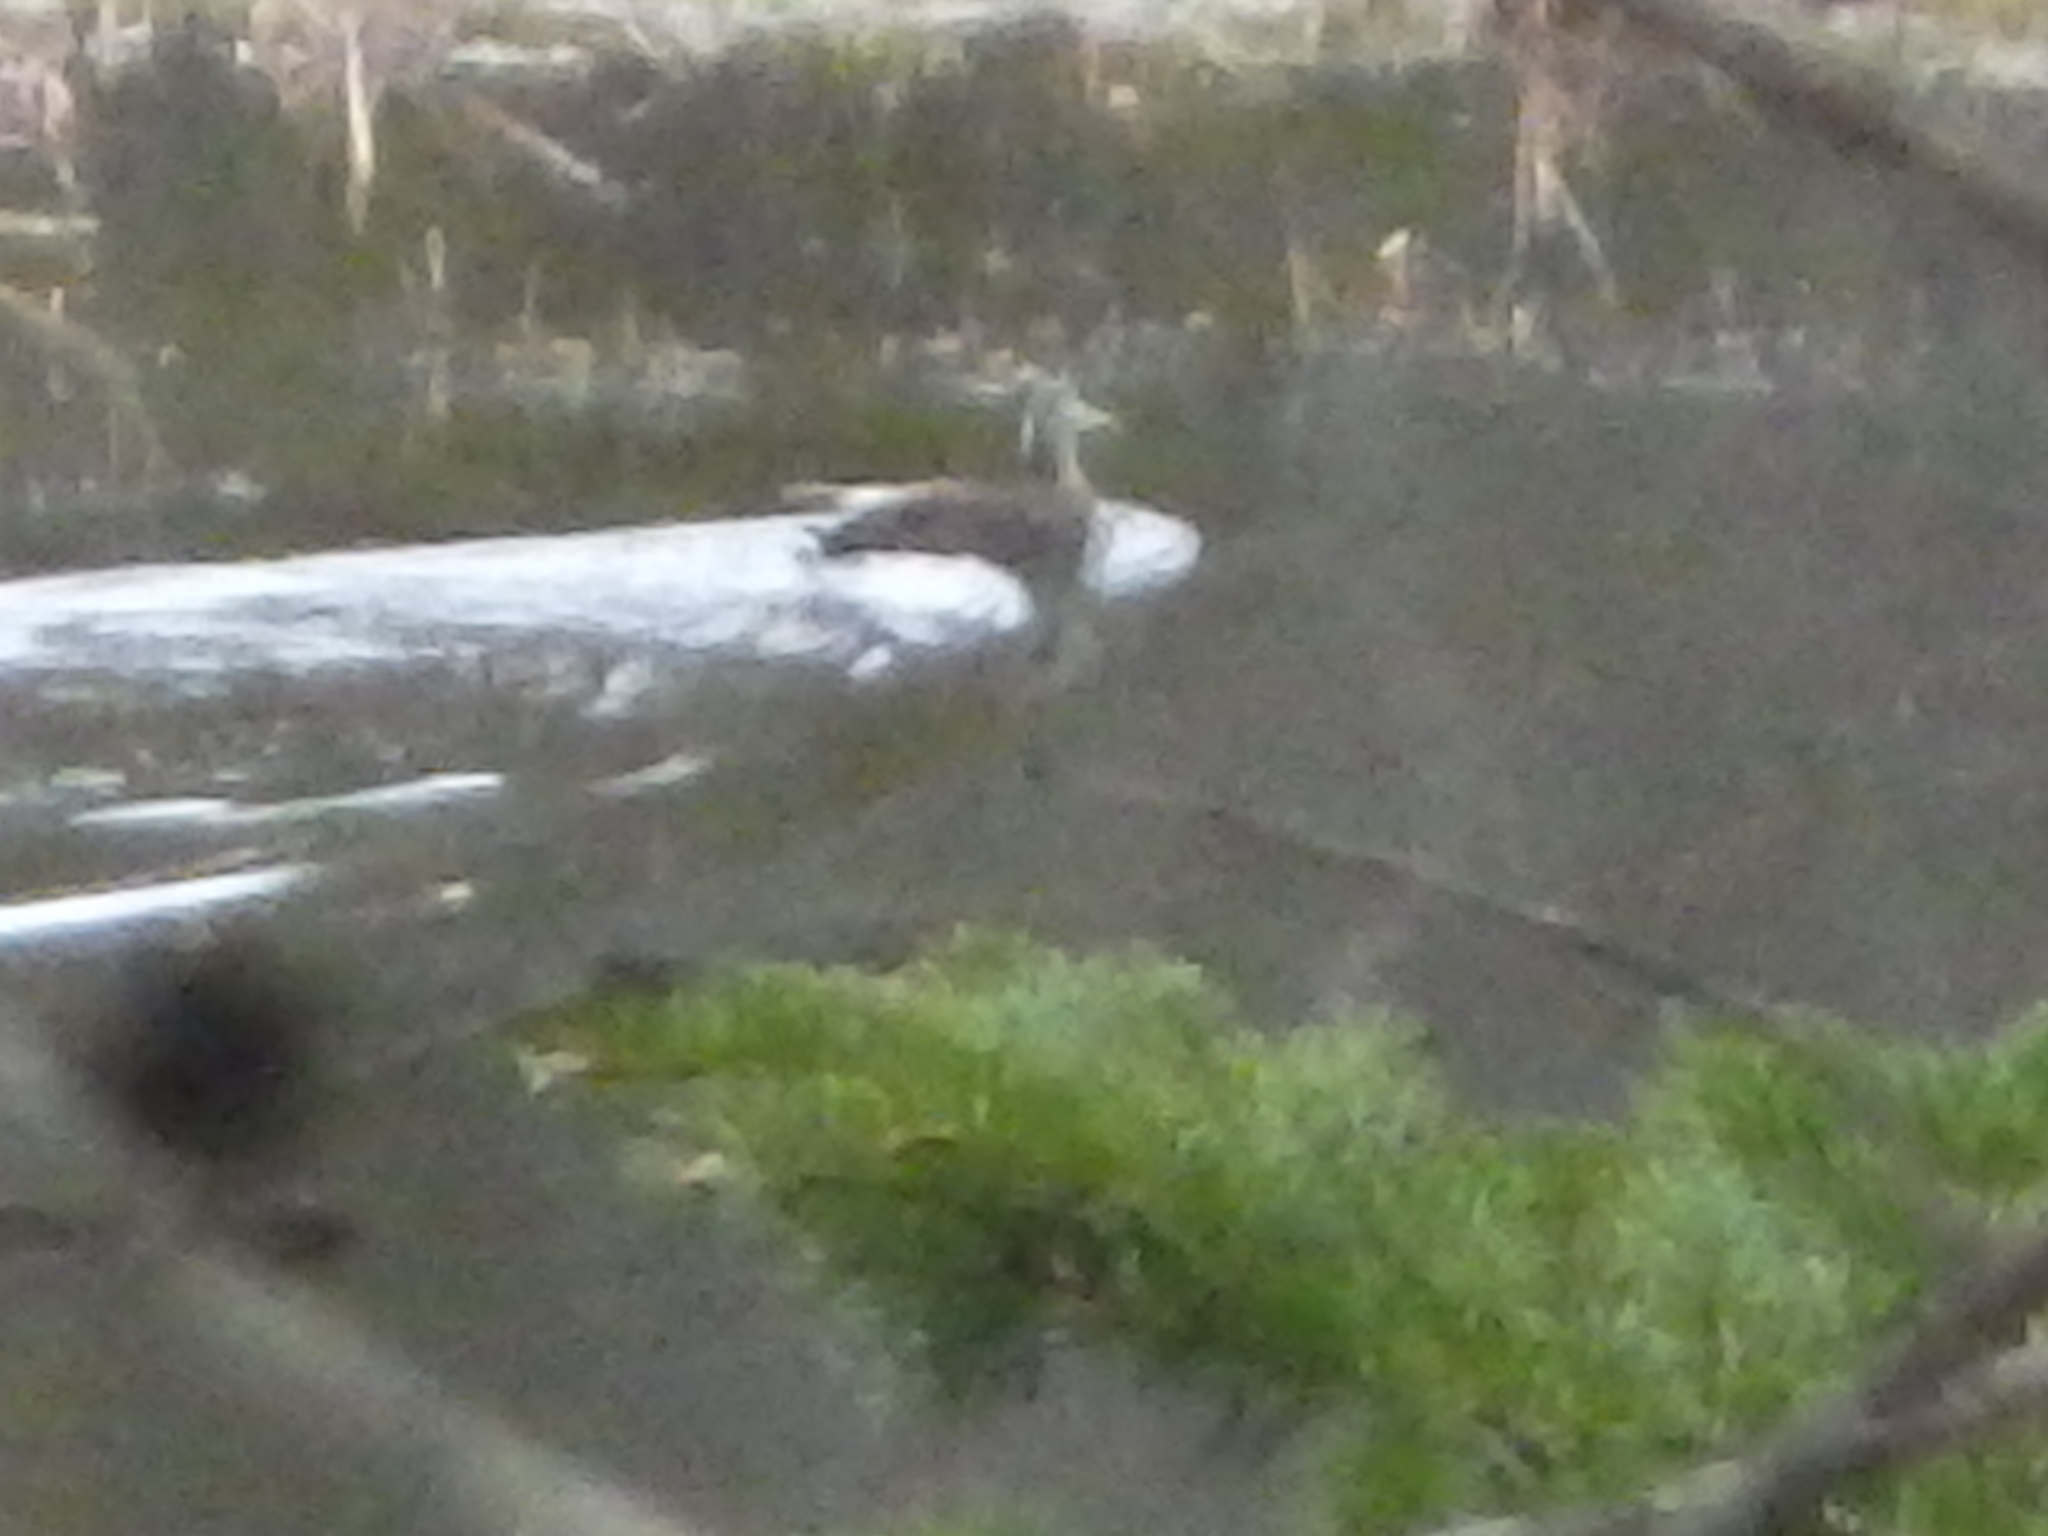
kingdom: Animalia
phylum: Chordata
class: Aves
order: Anseriformes
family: Anatidae
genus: Anas
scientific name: Anas rubripes
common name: American black duck
